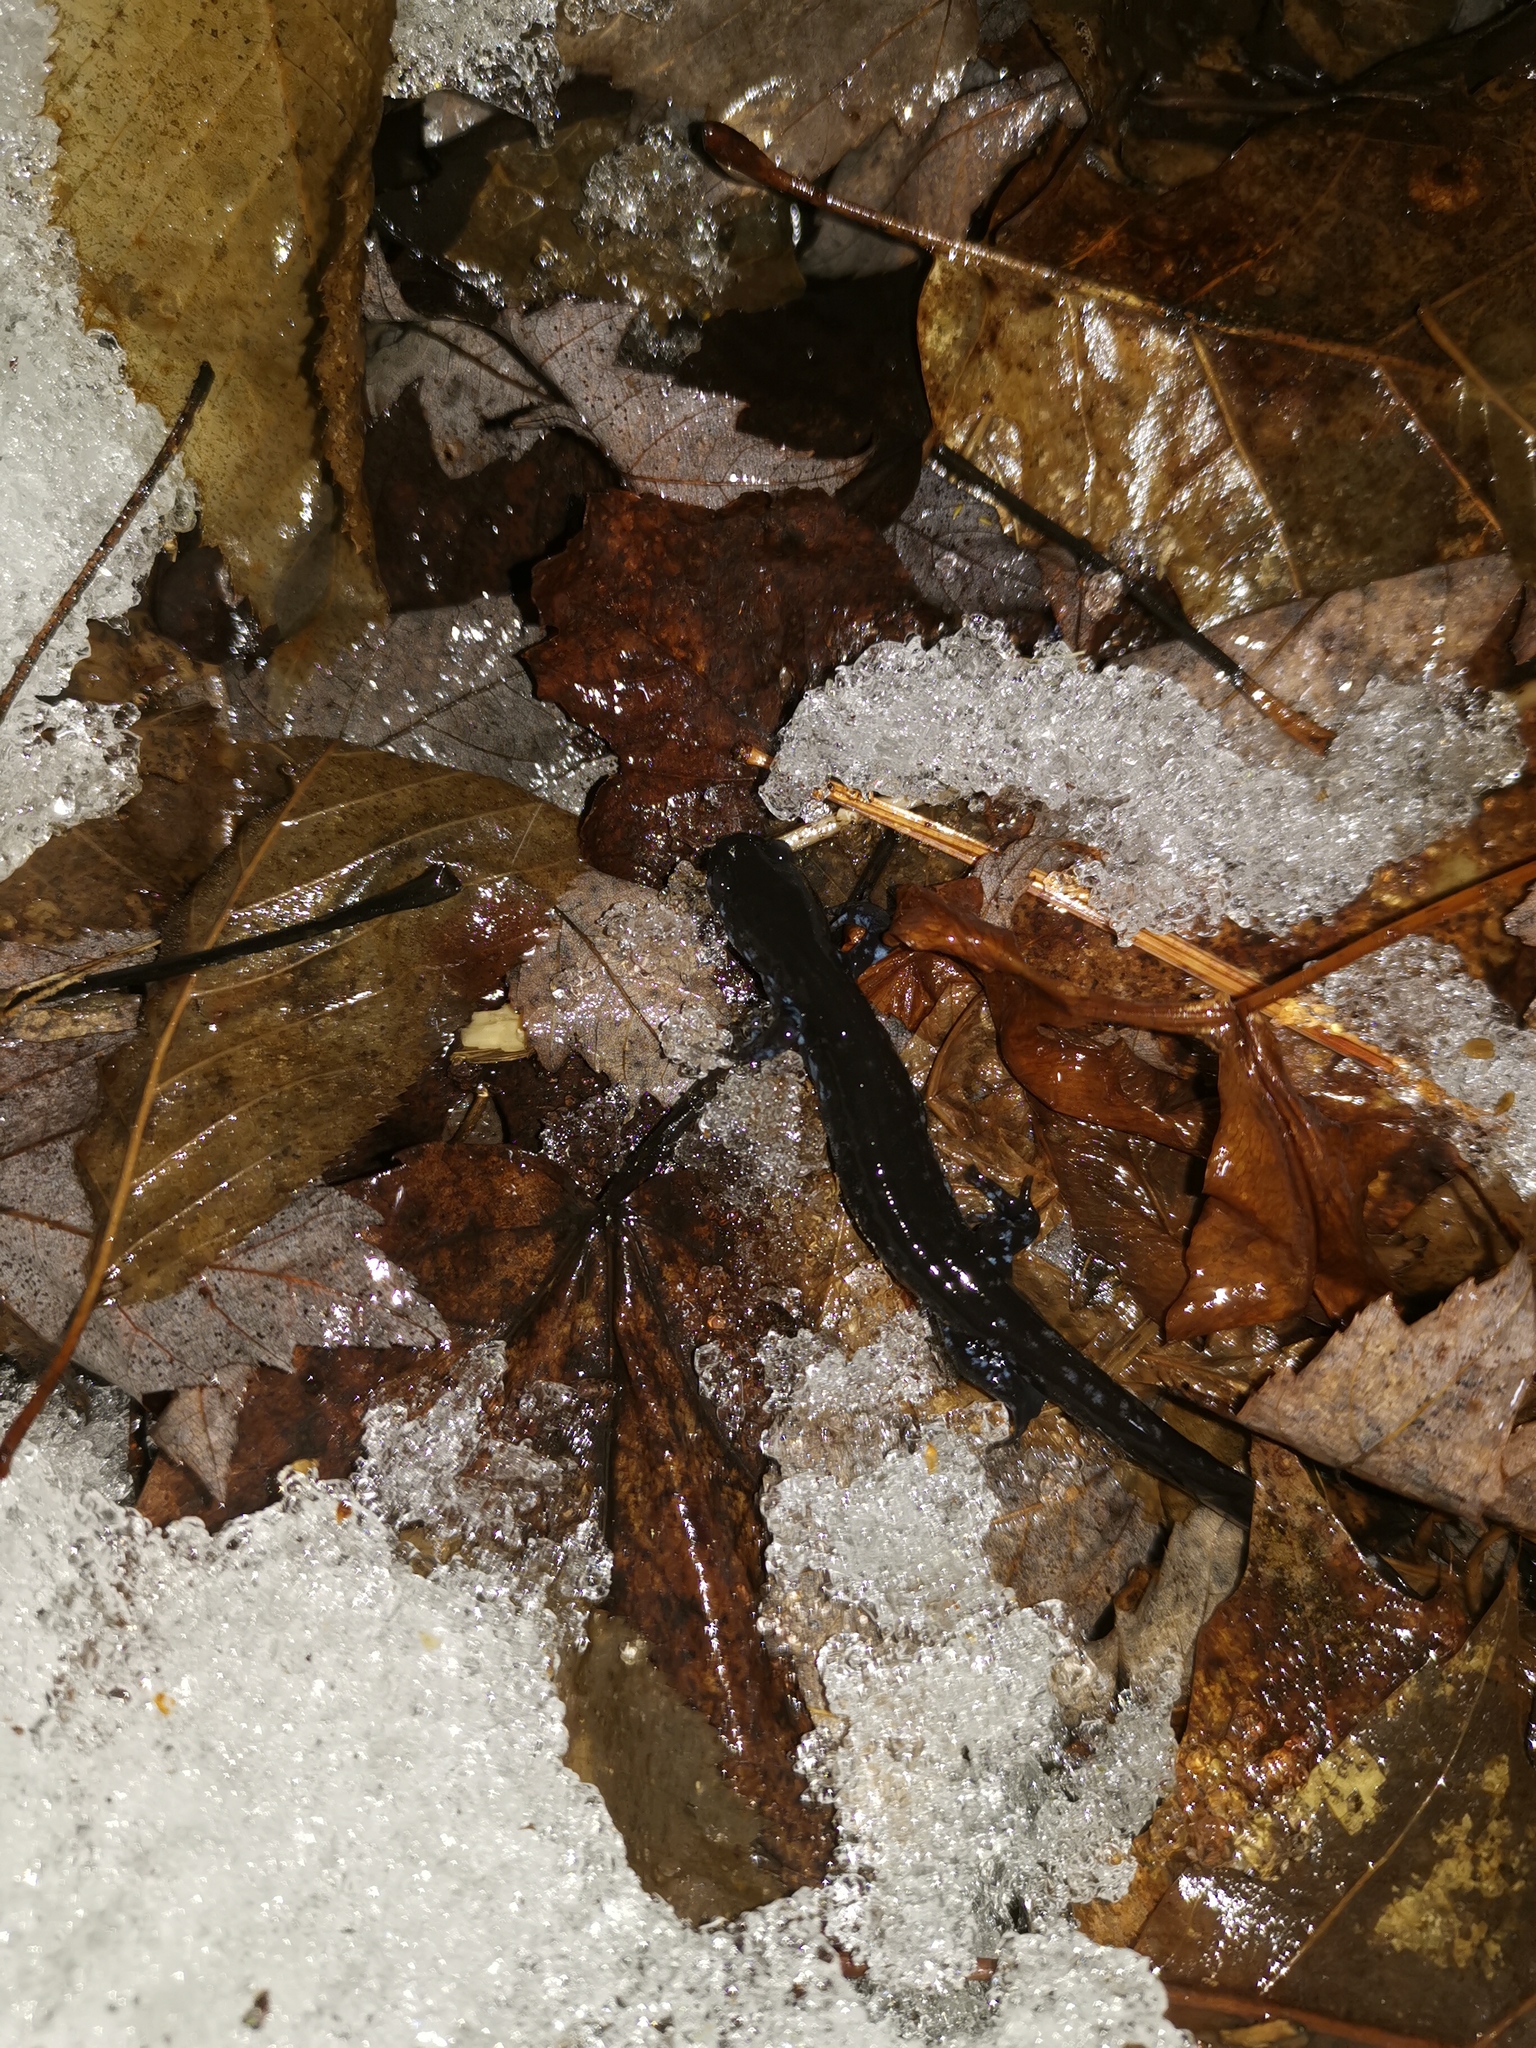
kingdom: Animalia
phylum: Chordata
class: Amphibia
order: Caudata
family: Ambystomatidae
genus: Ambystoma
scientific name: Ambystoma laterale
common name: Blue-spotted salamander
